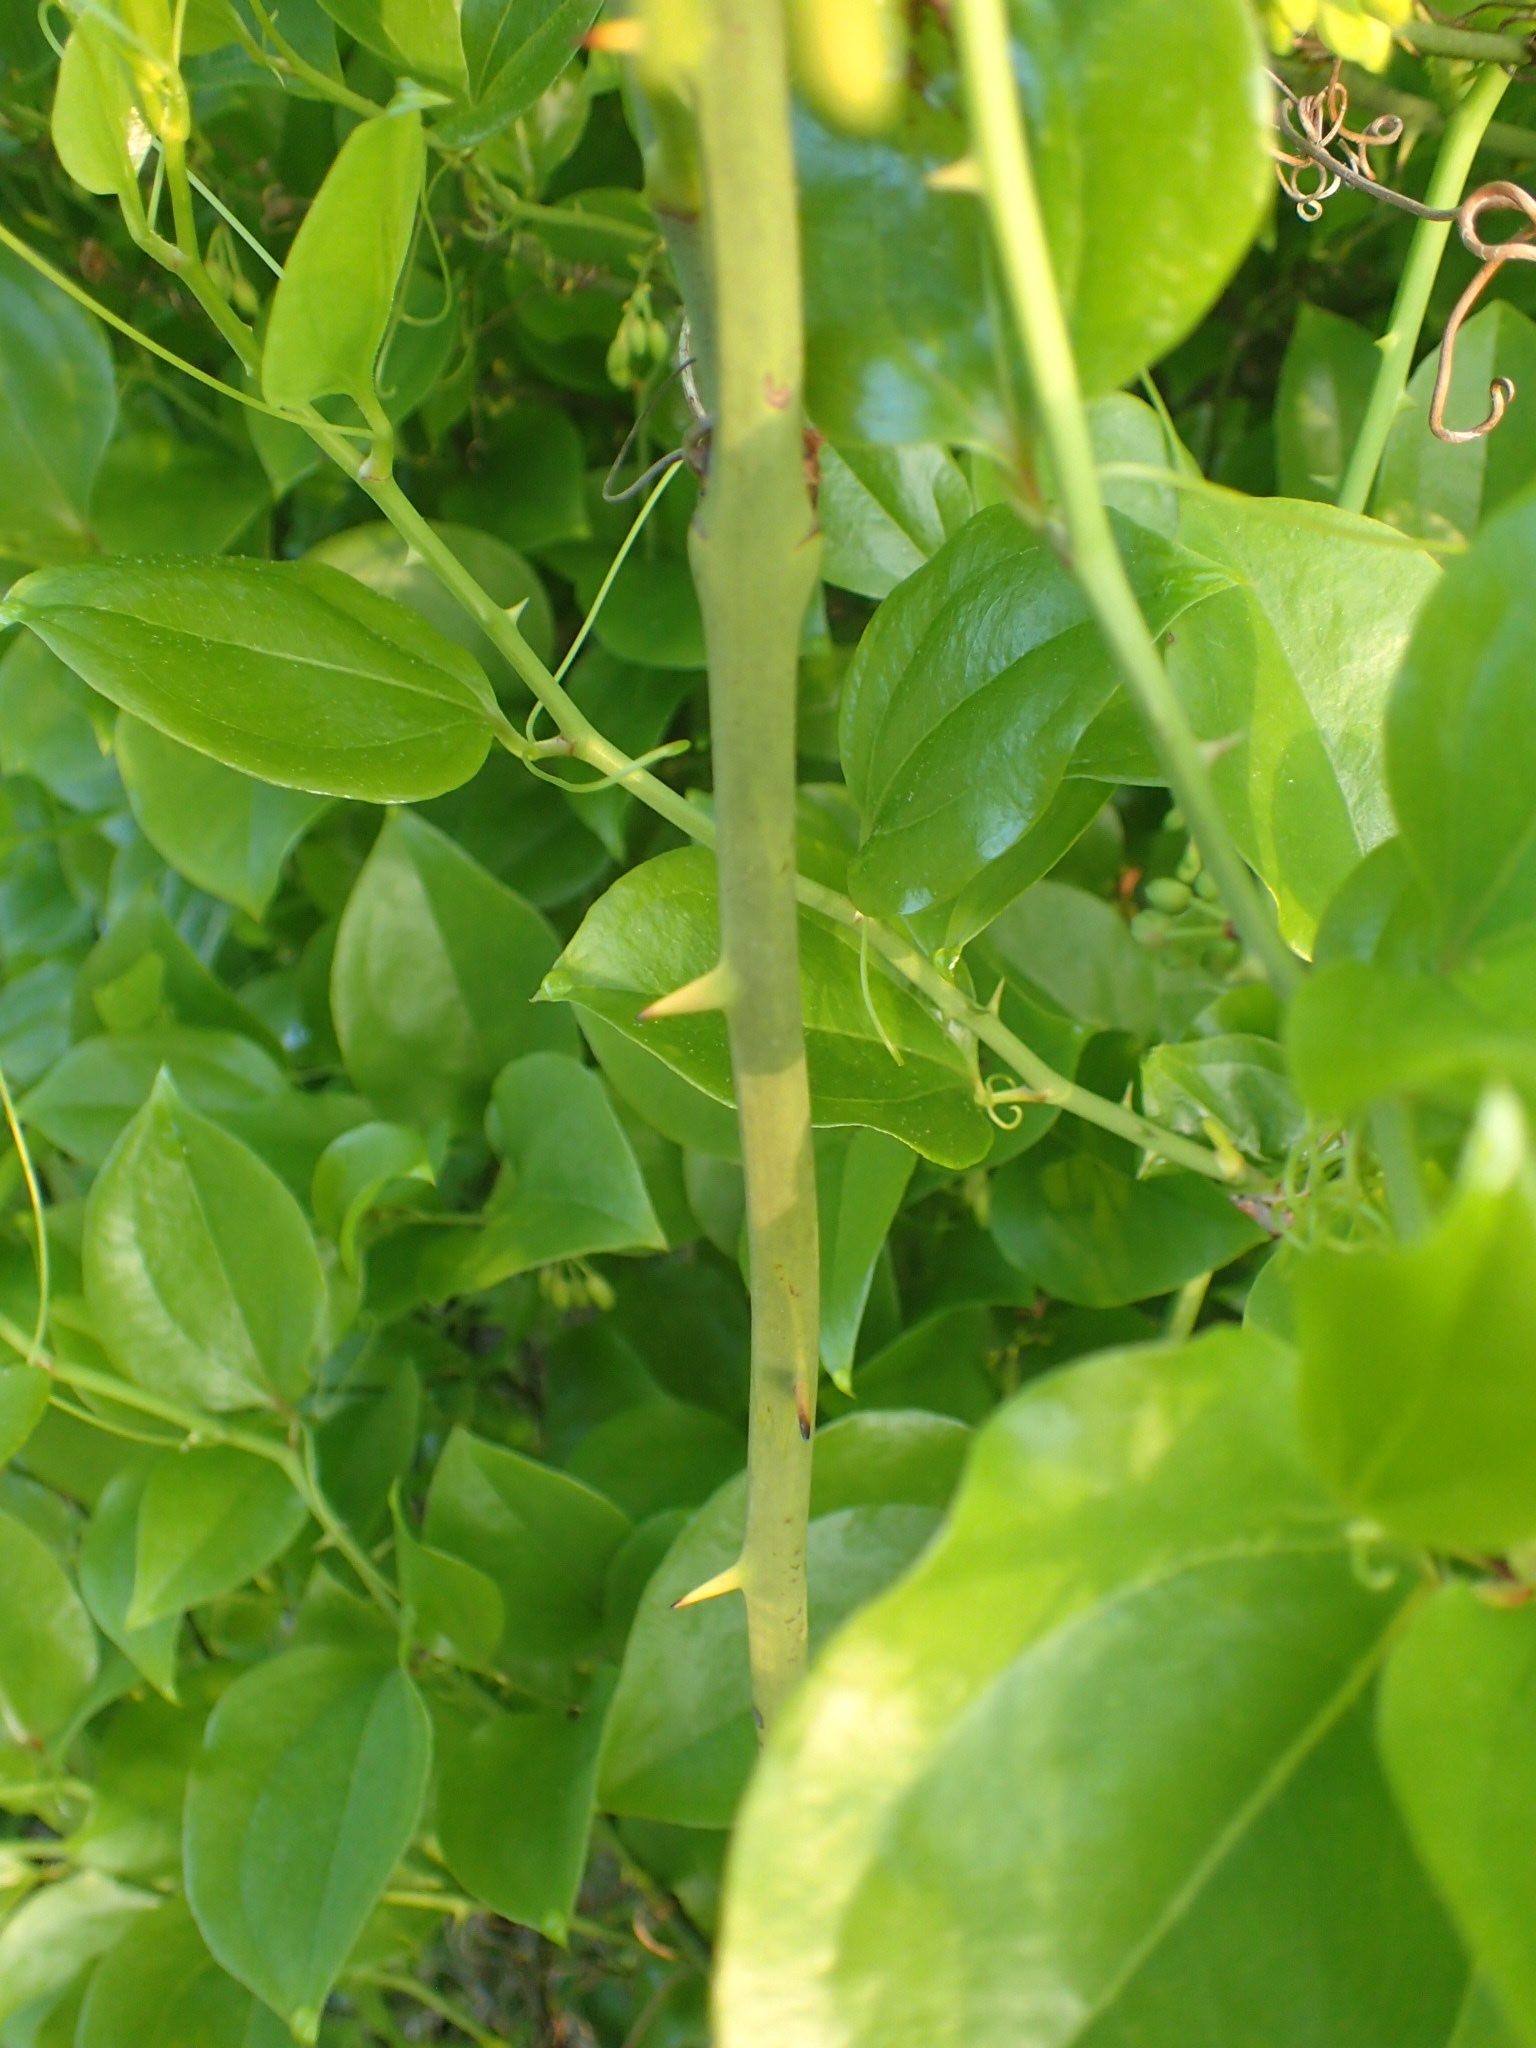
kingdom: Plantae
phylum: Tracheophyta
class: Liliopsida
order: Liliales
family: Smilacaceae
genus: Smilax
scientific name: Smilax rotundifolia
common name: Bullbriar
